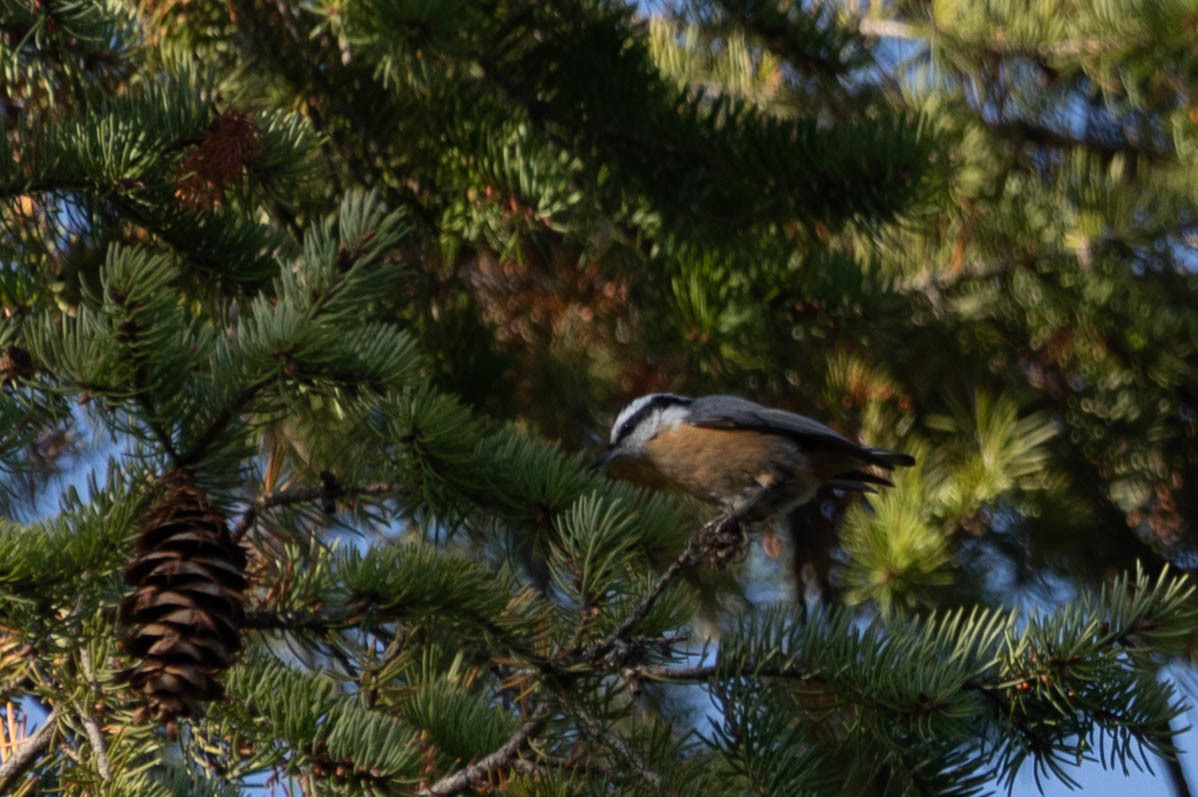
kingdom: Animalia
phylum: Chordata
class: Aves
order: Passeriformes
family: Sittidae
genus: Sitta
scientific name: Sitta canadensis
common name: Red-breasted nuthatch
